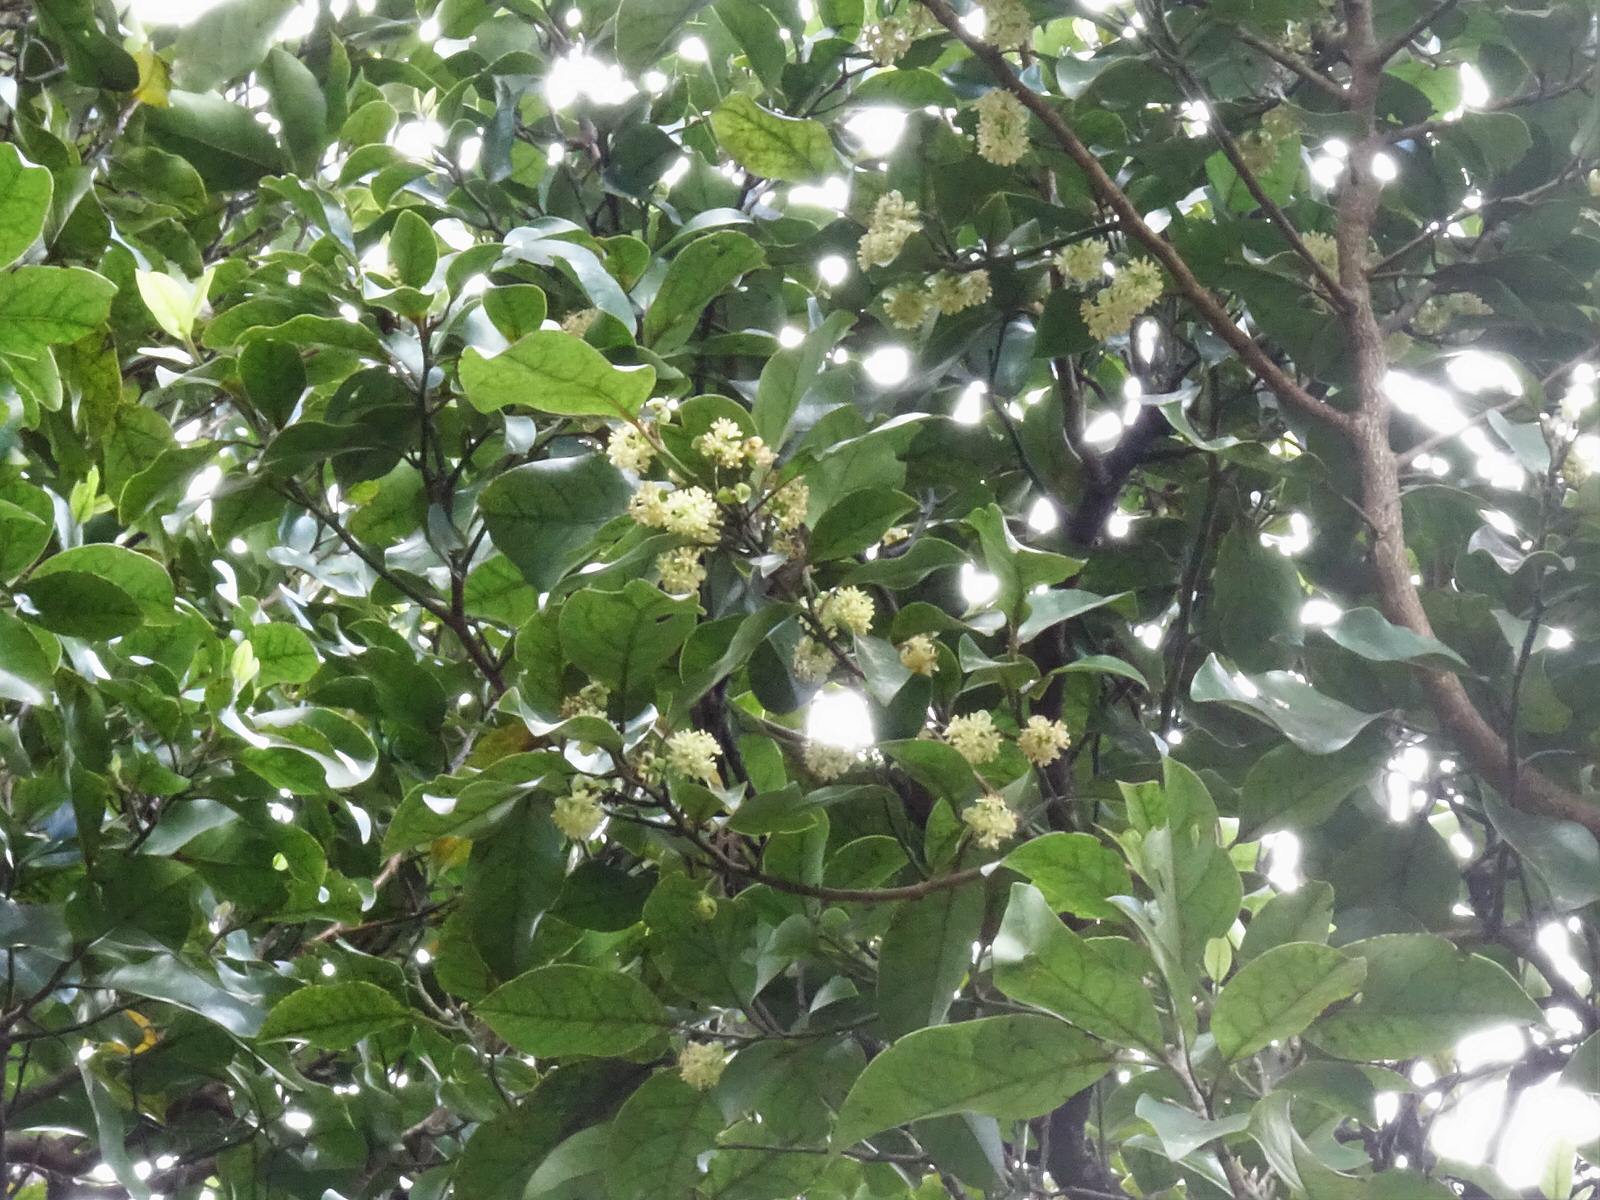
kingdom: Plantae
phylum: Tracheophyta
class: Magnoliopsida
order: Laurales
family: Lauraceae
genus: Litsea
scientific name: Litsea calicaris
